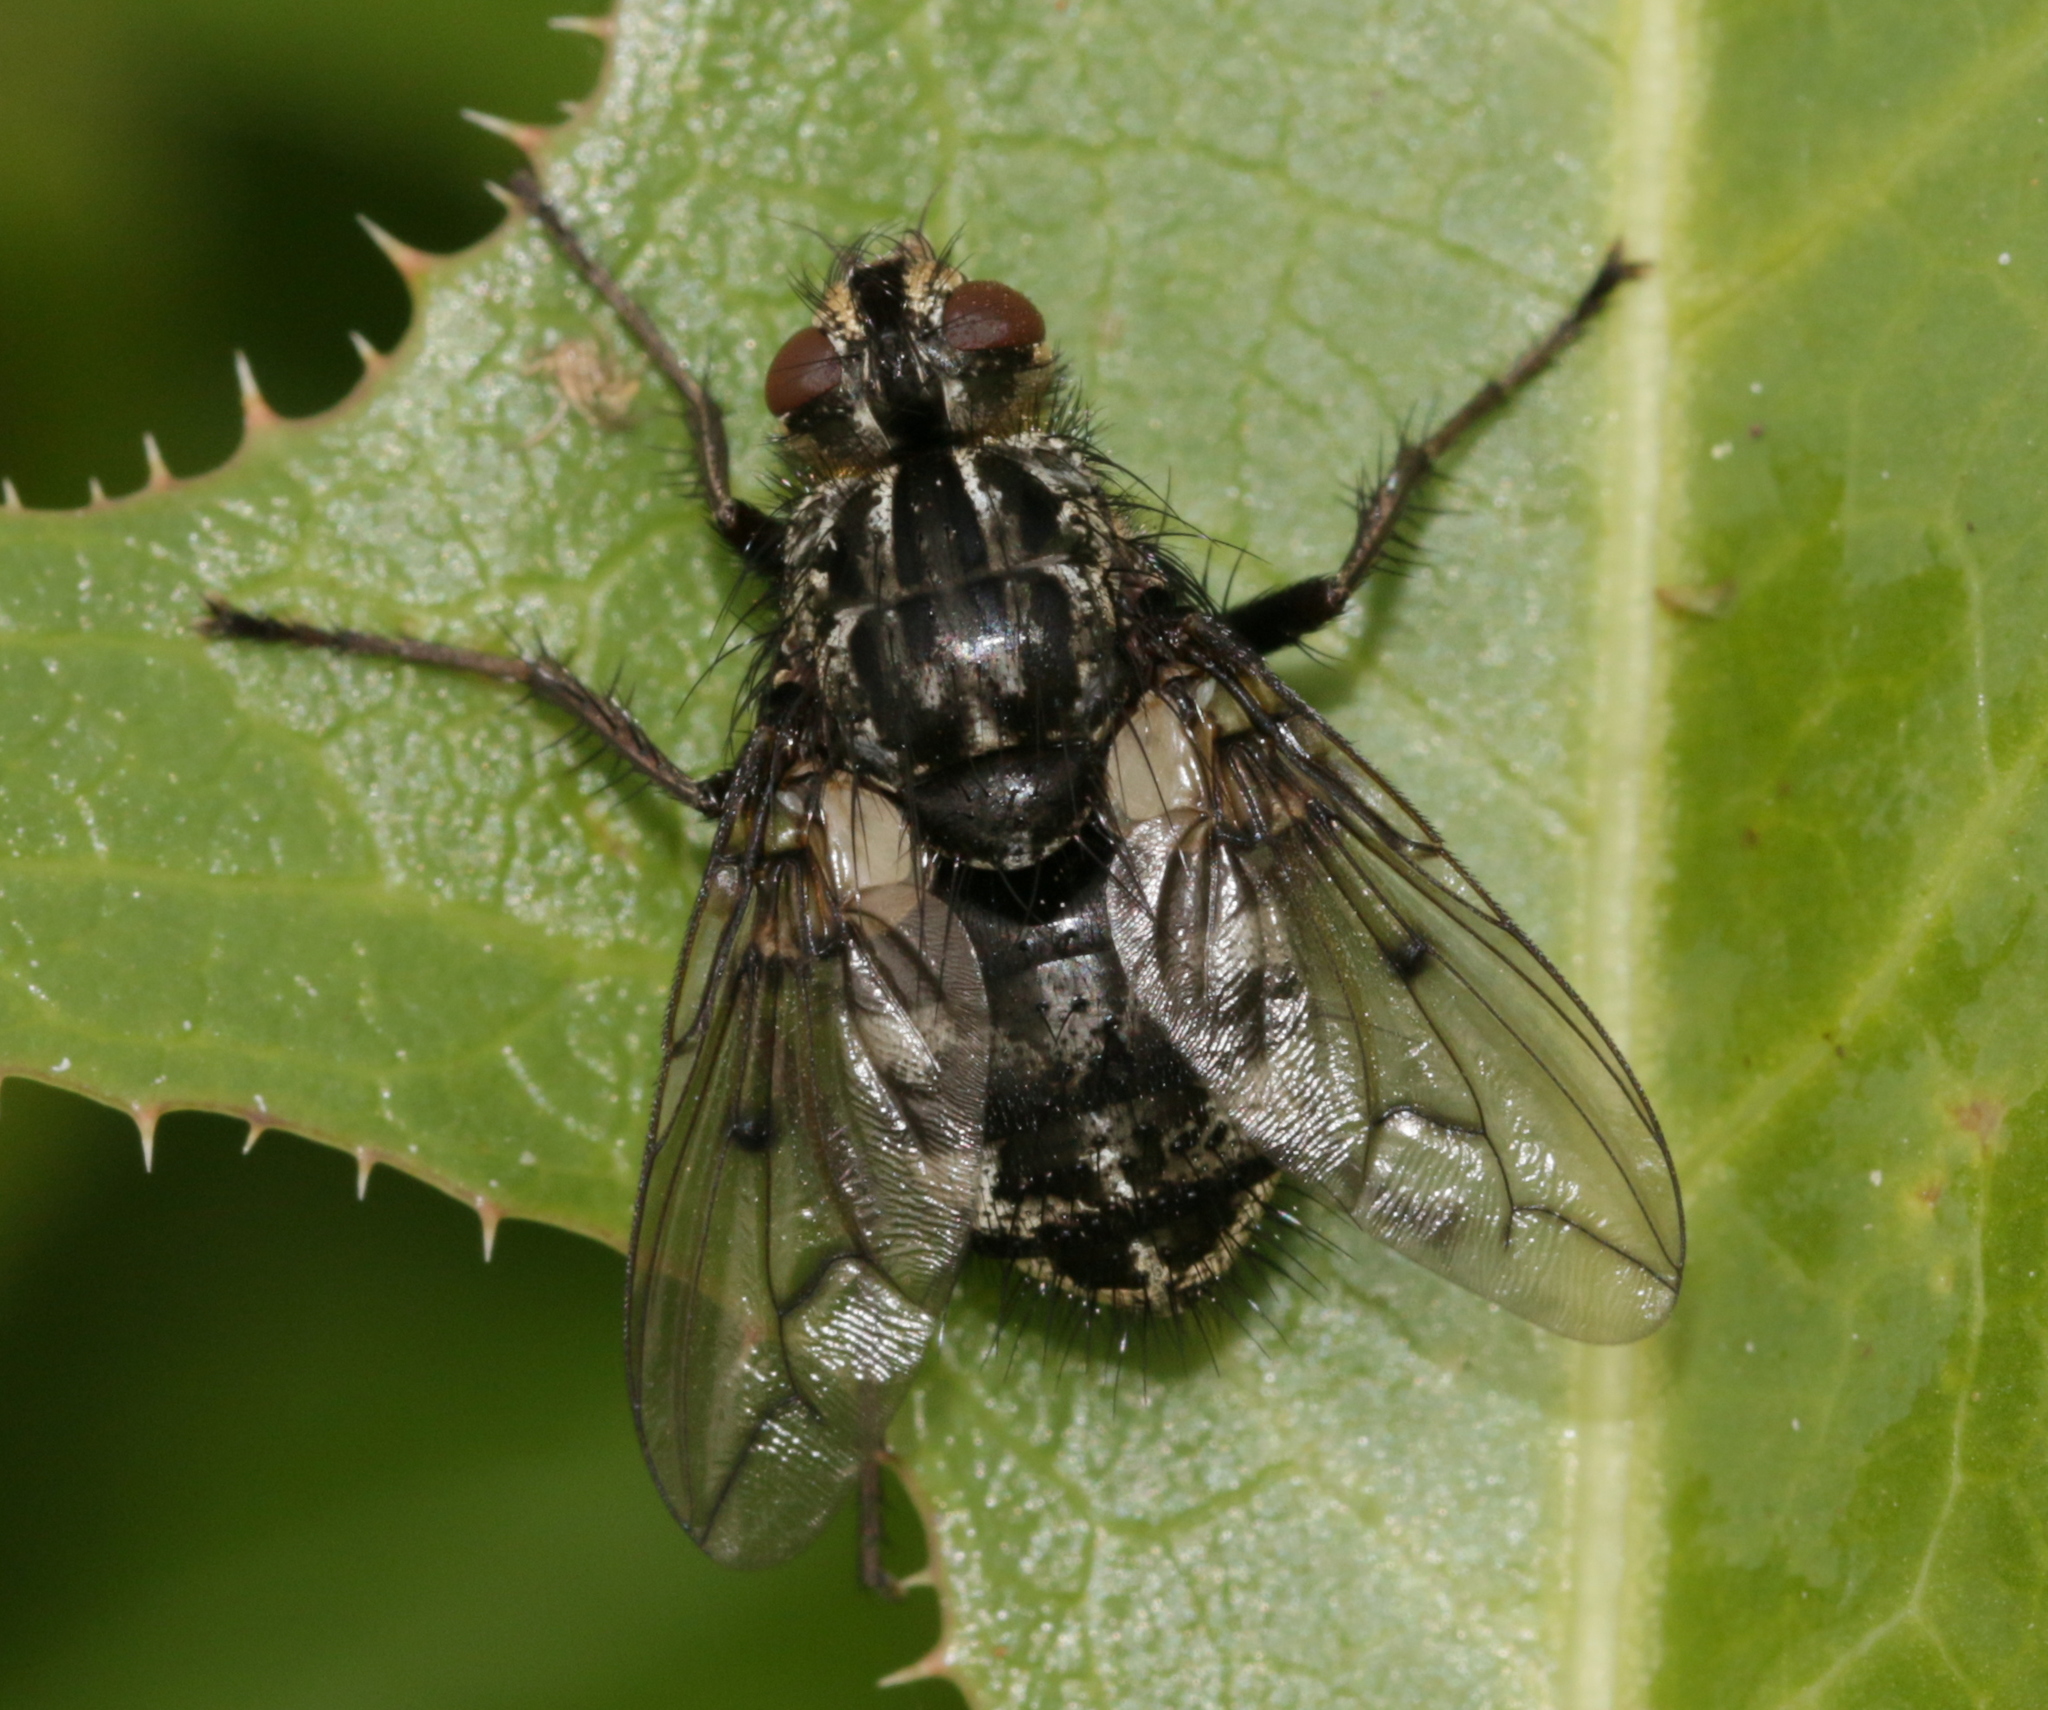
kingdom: Animalia
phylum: Arthropoda
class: Insecta
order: Diptera
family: Tachinidae
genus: Trixa
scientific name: Trixa conspersa
